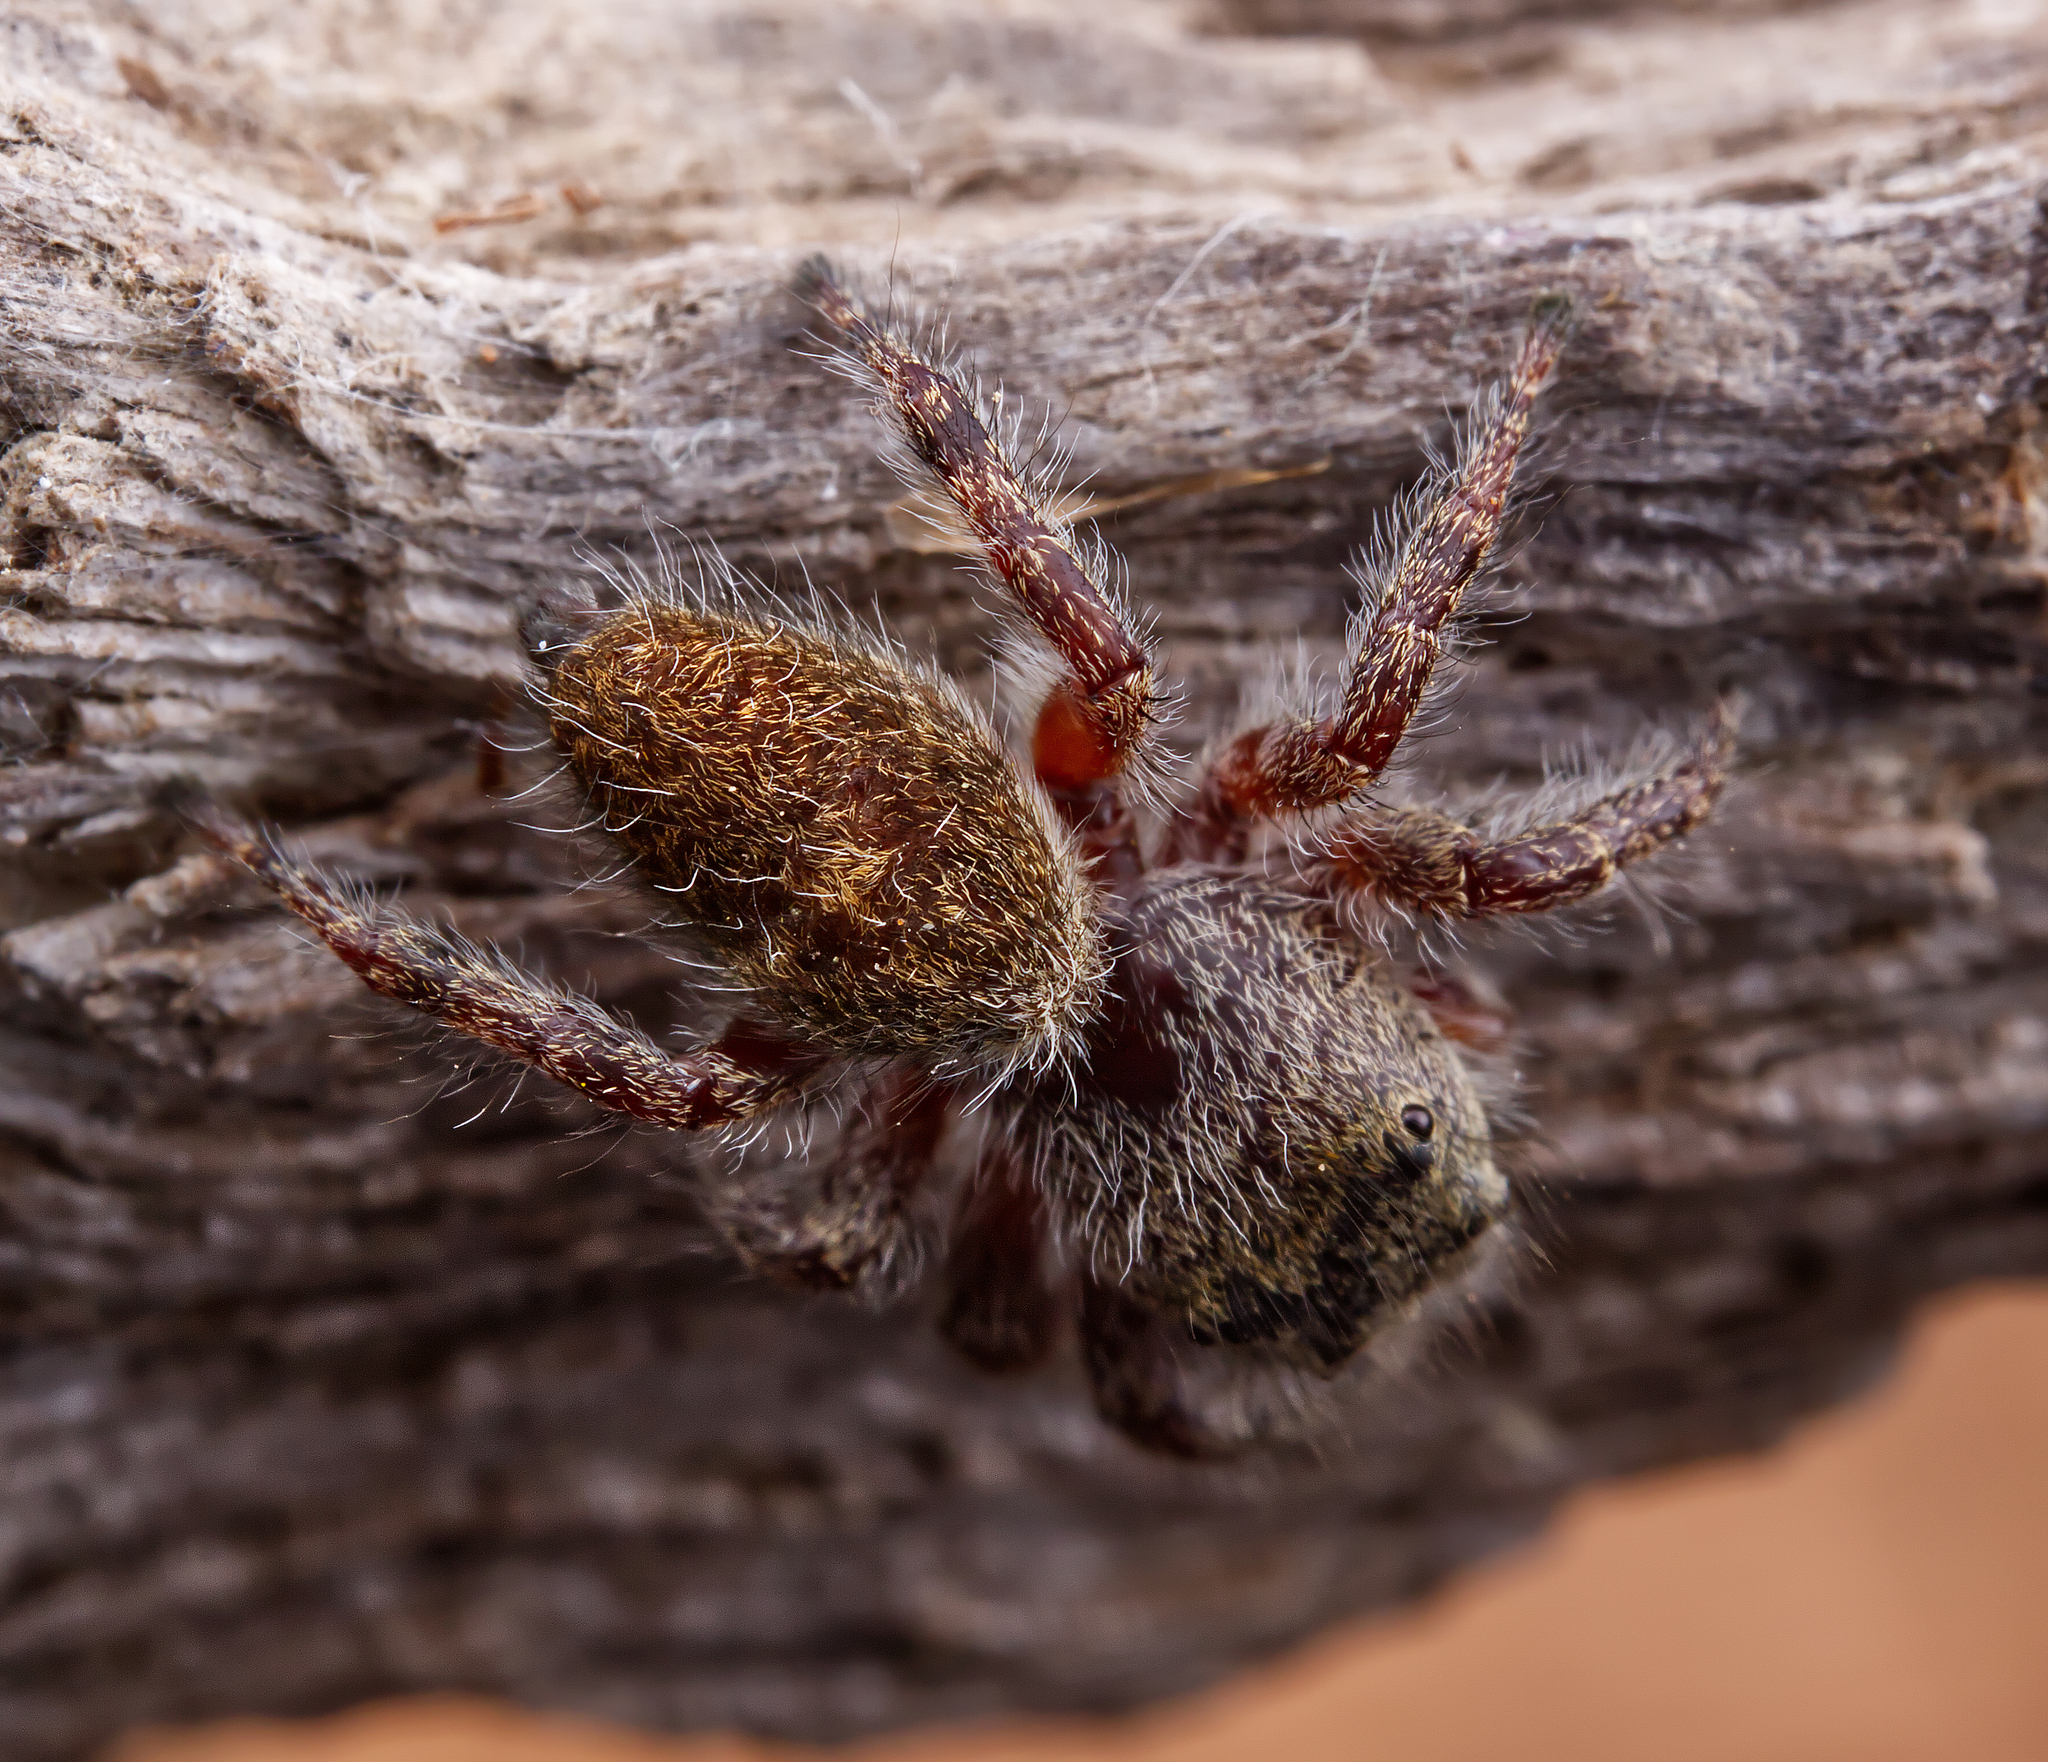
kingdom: Animalia
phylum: Arthropoda
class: Arachnida
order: Araneae
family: Salticidae
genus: Phidippus
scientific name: Phidippus princeps
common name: Grayish jumping spider
